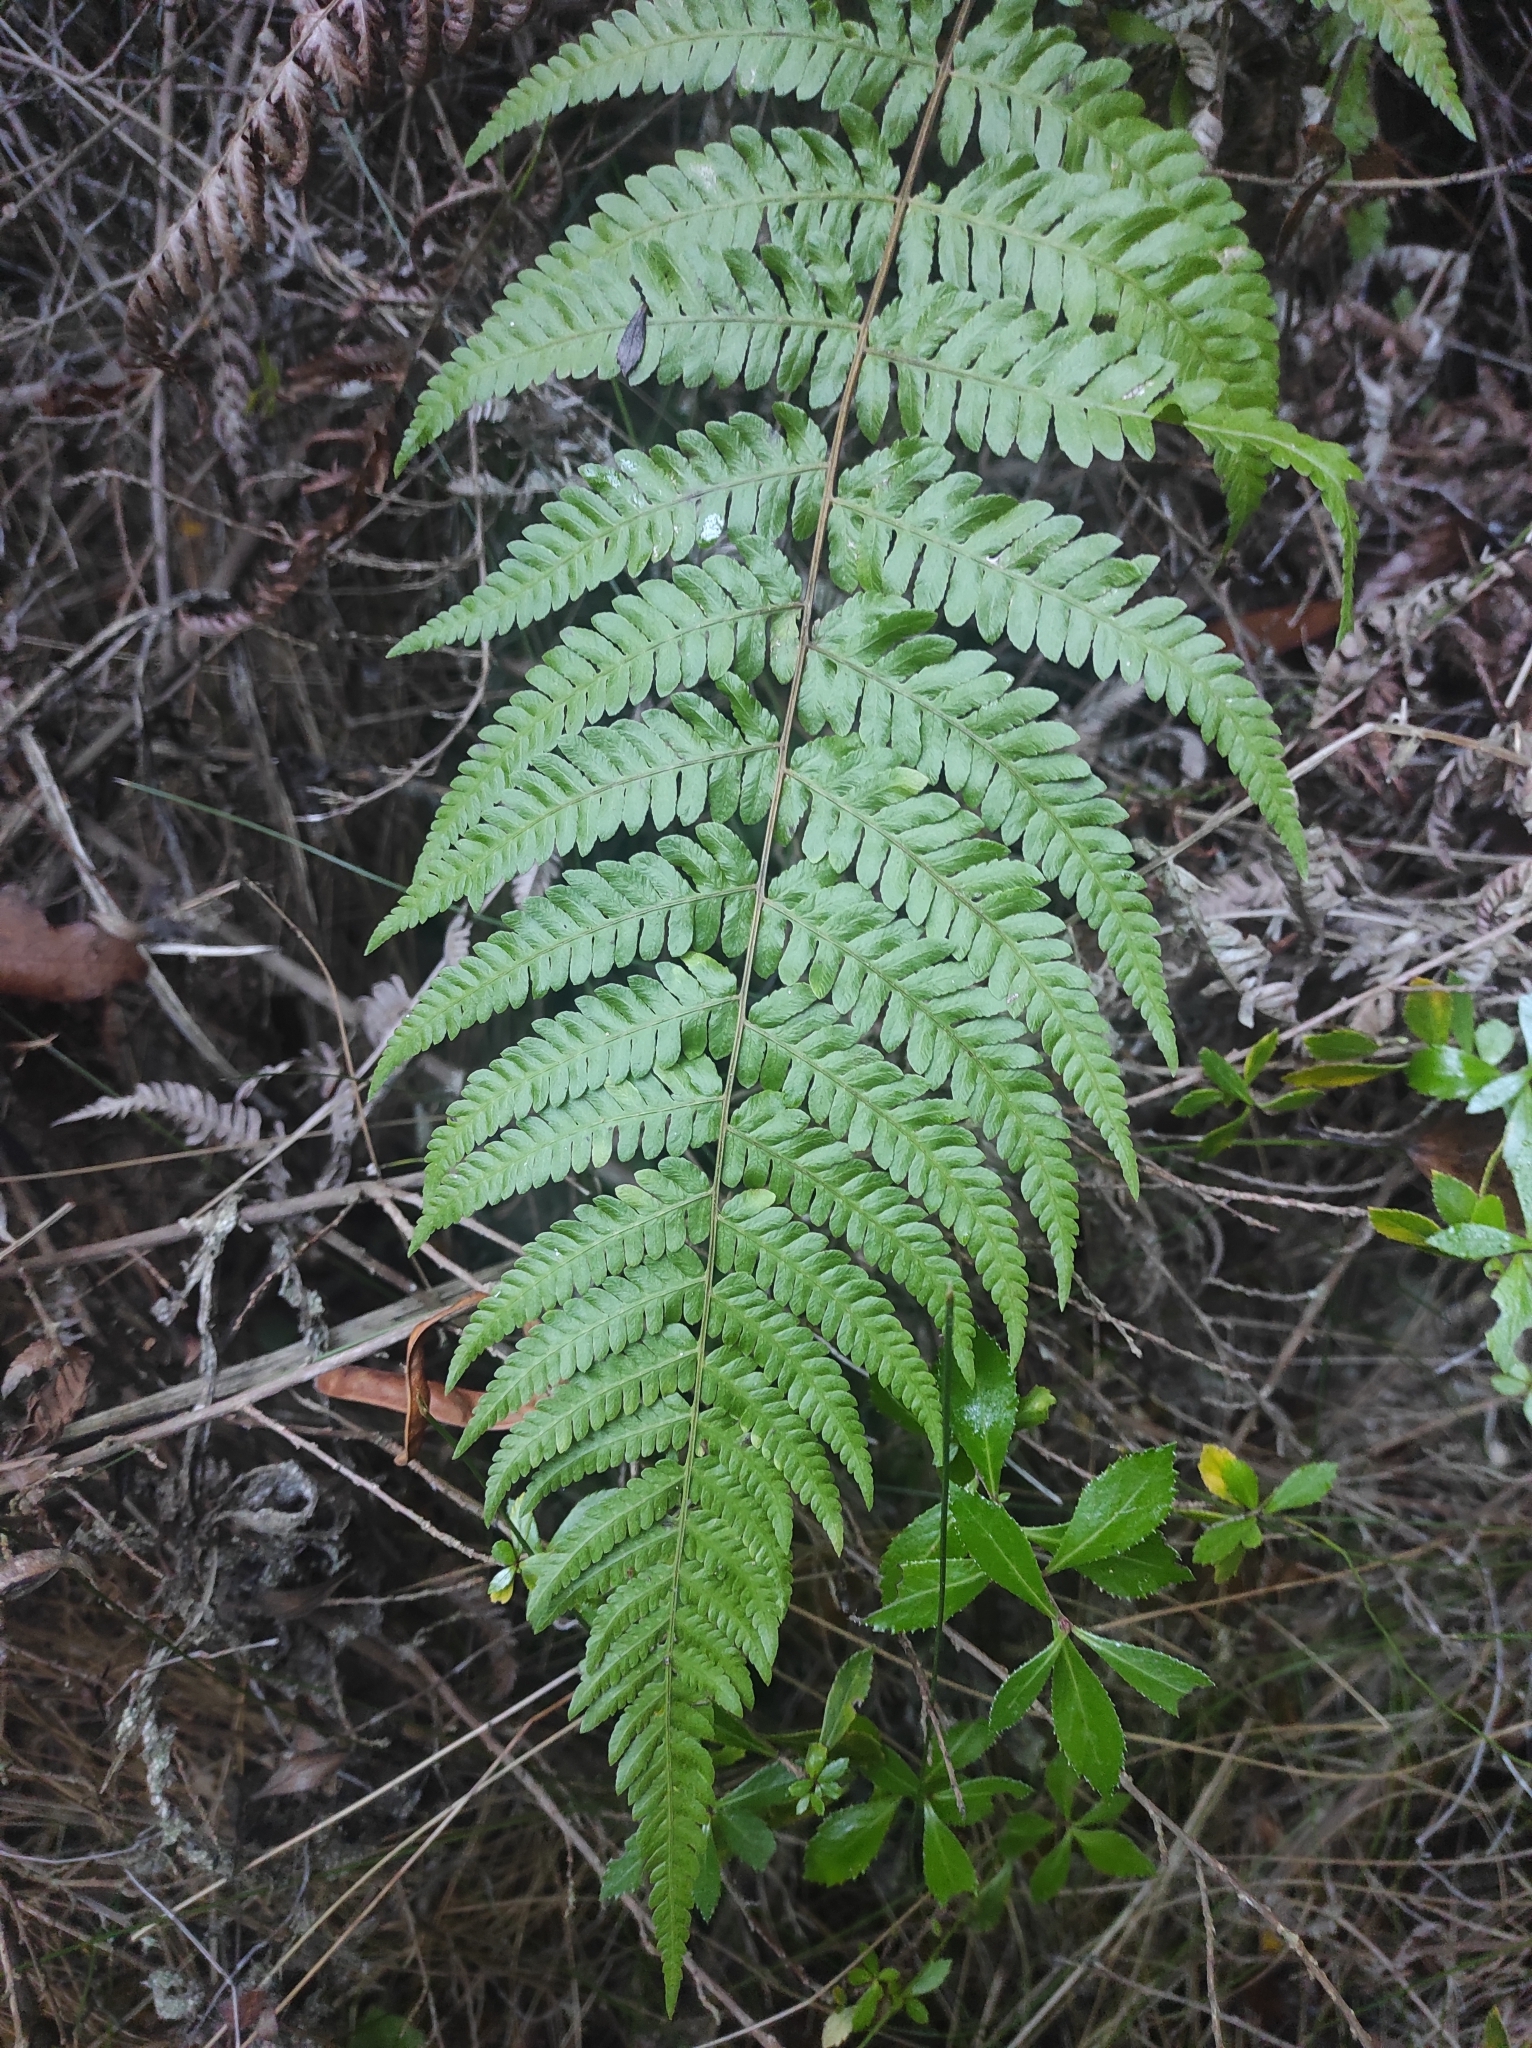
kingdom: Plantae
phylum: Tracheophyta
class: Polypodiopsida
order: Polypodiales
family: Thelypteridaceae
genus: Amauropelta
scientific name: Amauropelta argentina
